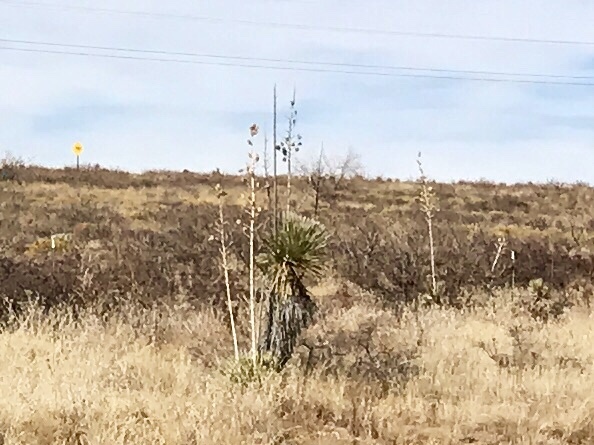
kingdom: Plantae
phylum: Tracheophyta
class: Liliopsida
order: Asparagales
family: Asparagaceae
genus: Yucca
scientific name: Yucca elata
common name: Palmella
